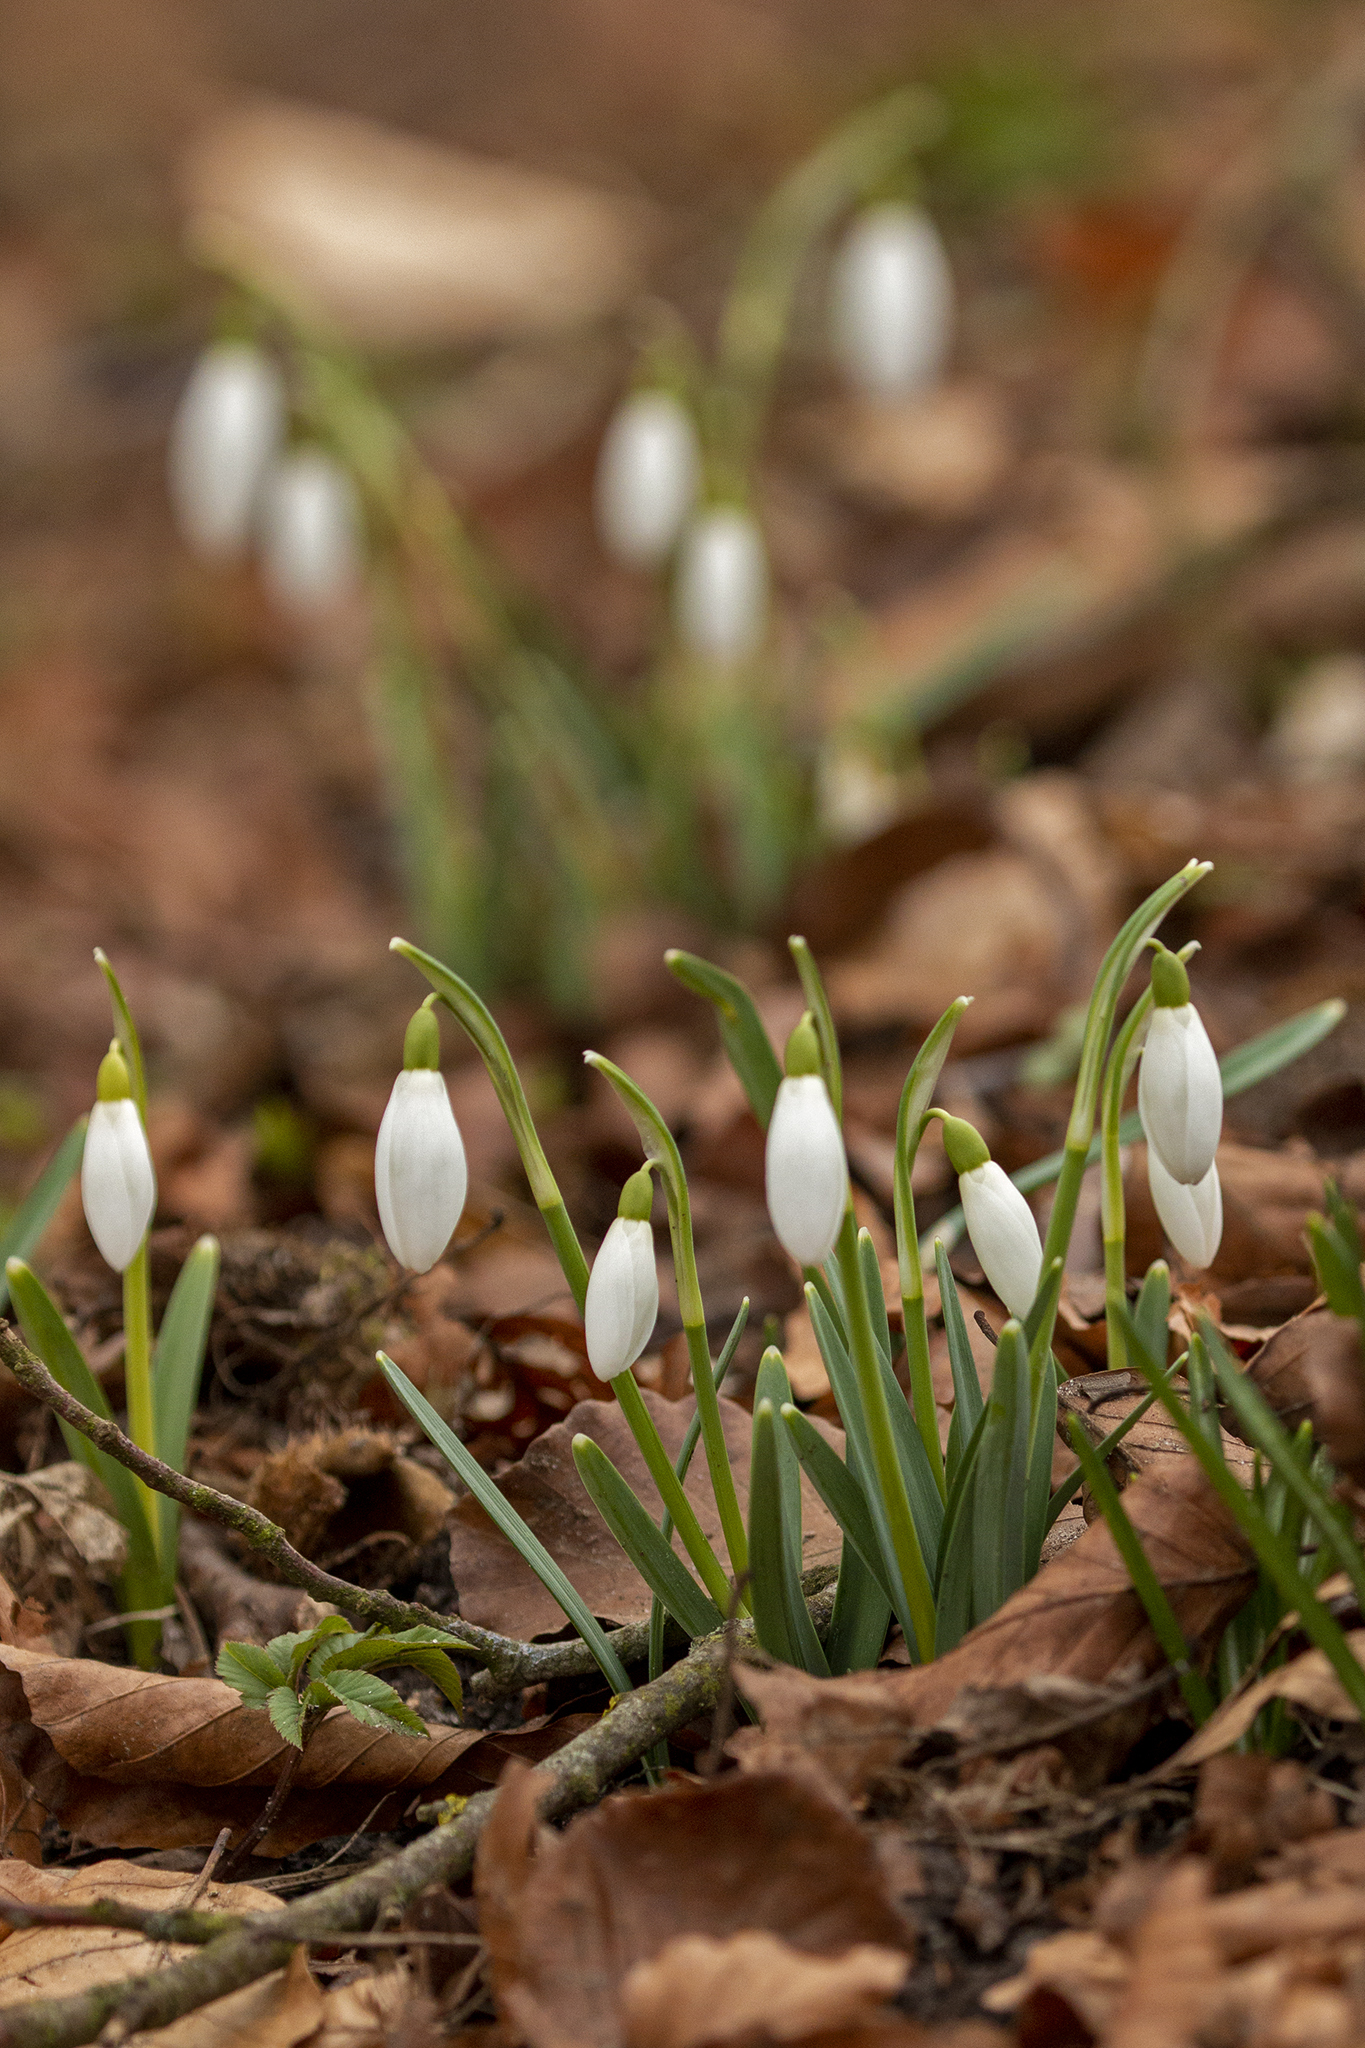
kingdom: Plantae
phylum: Tracheophyta
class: Liliopsida
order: Asparagales
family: Amaryllidaceae
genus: Galanthus
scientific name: Galanthus nivalis
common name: Snowdrop
